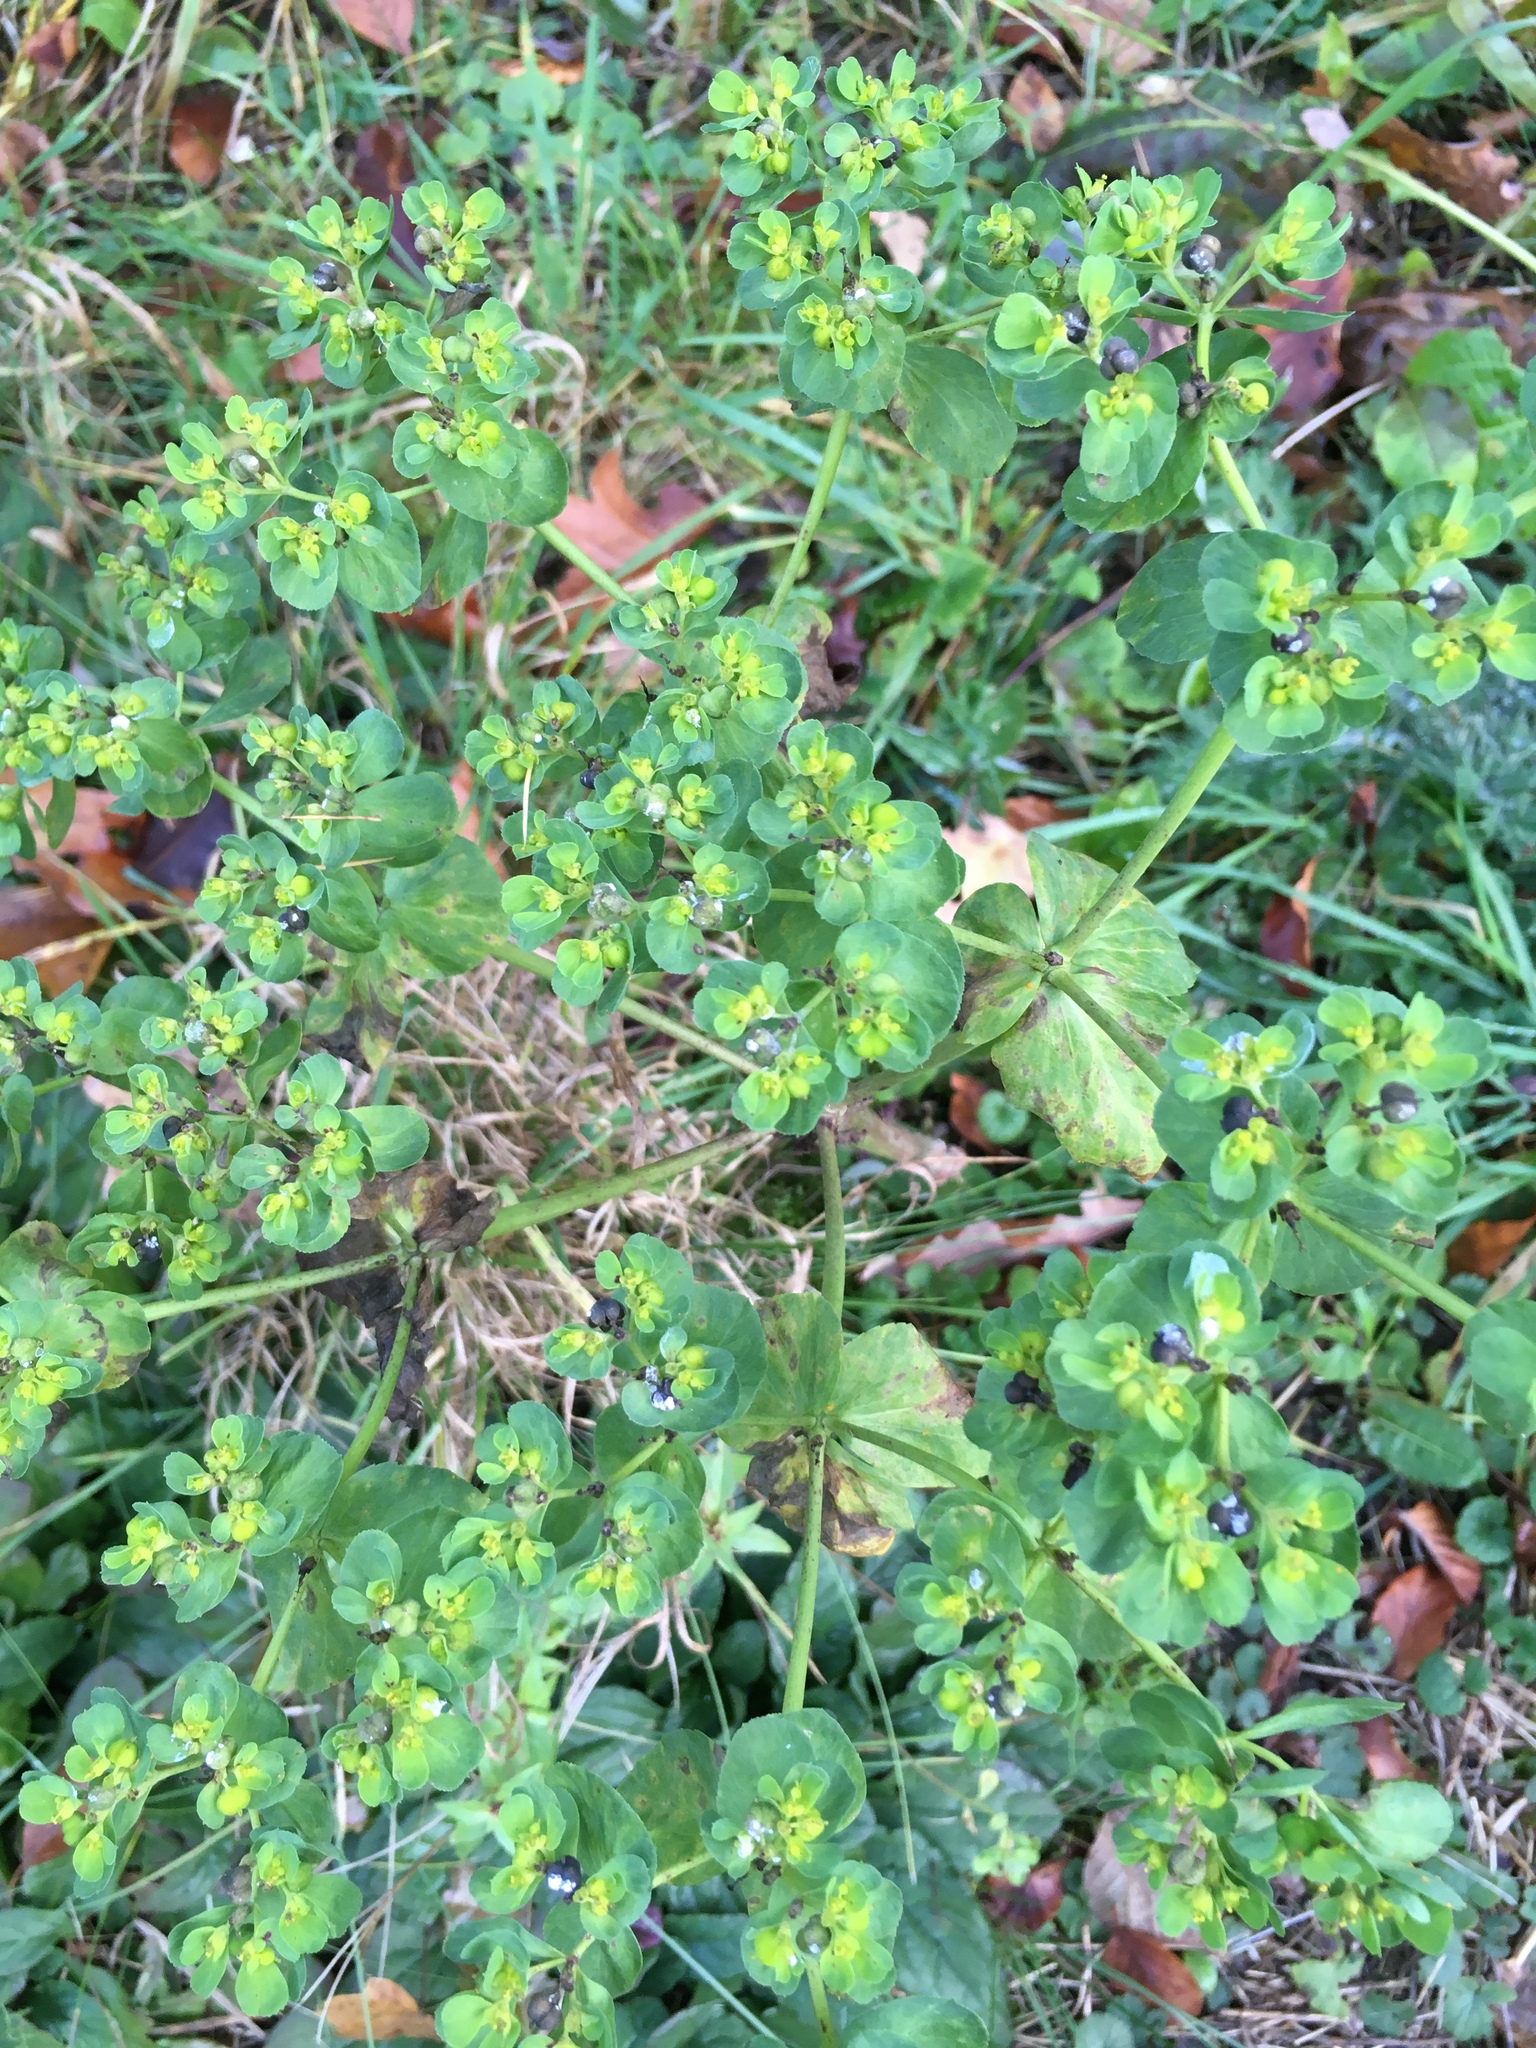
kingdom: Plantae
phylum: Tracheophyta
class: Magnoliopsida
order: Malpighiales
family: Euphorbiaceae
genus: Euphorbia
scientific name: Euphorbia helioscopia
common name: Sun spurge
